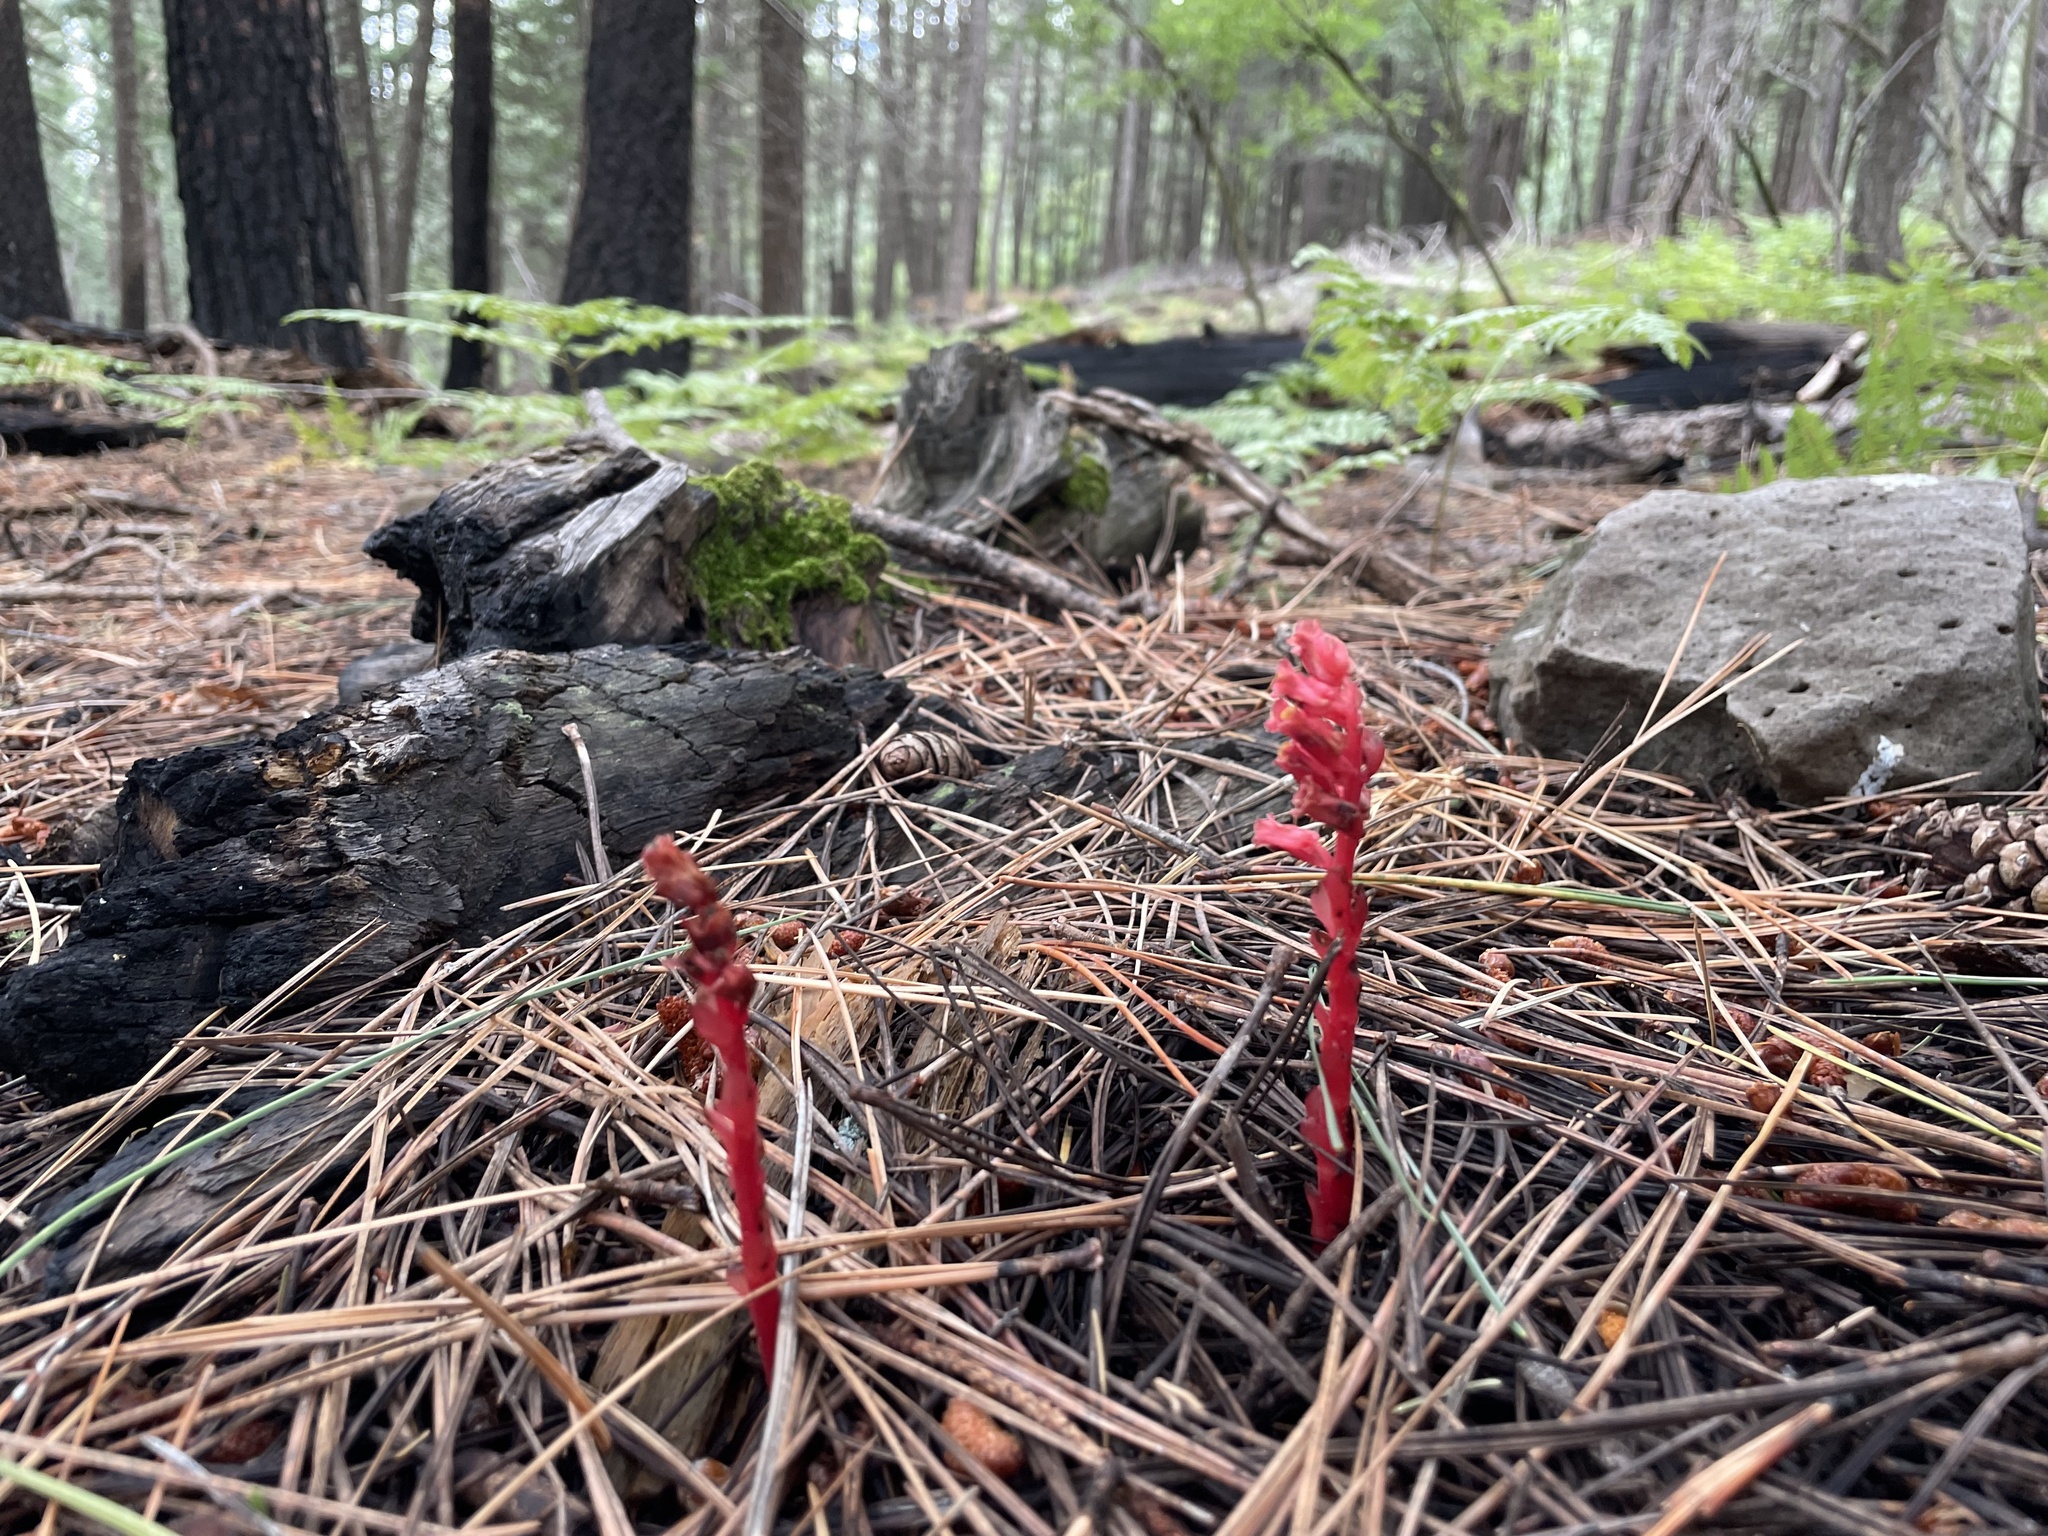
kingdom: Plantae
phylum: Tracheophyta
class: Magnoliopsida
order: Ericales
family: Ericaceae
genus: Hypopitys
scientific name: Hypopitys monotropa
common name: Yellow bird's-nest
